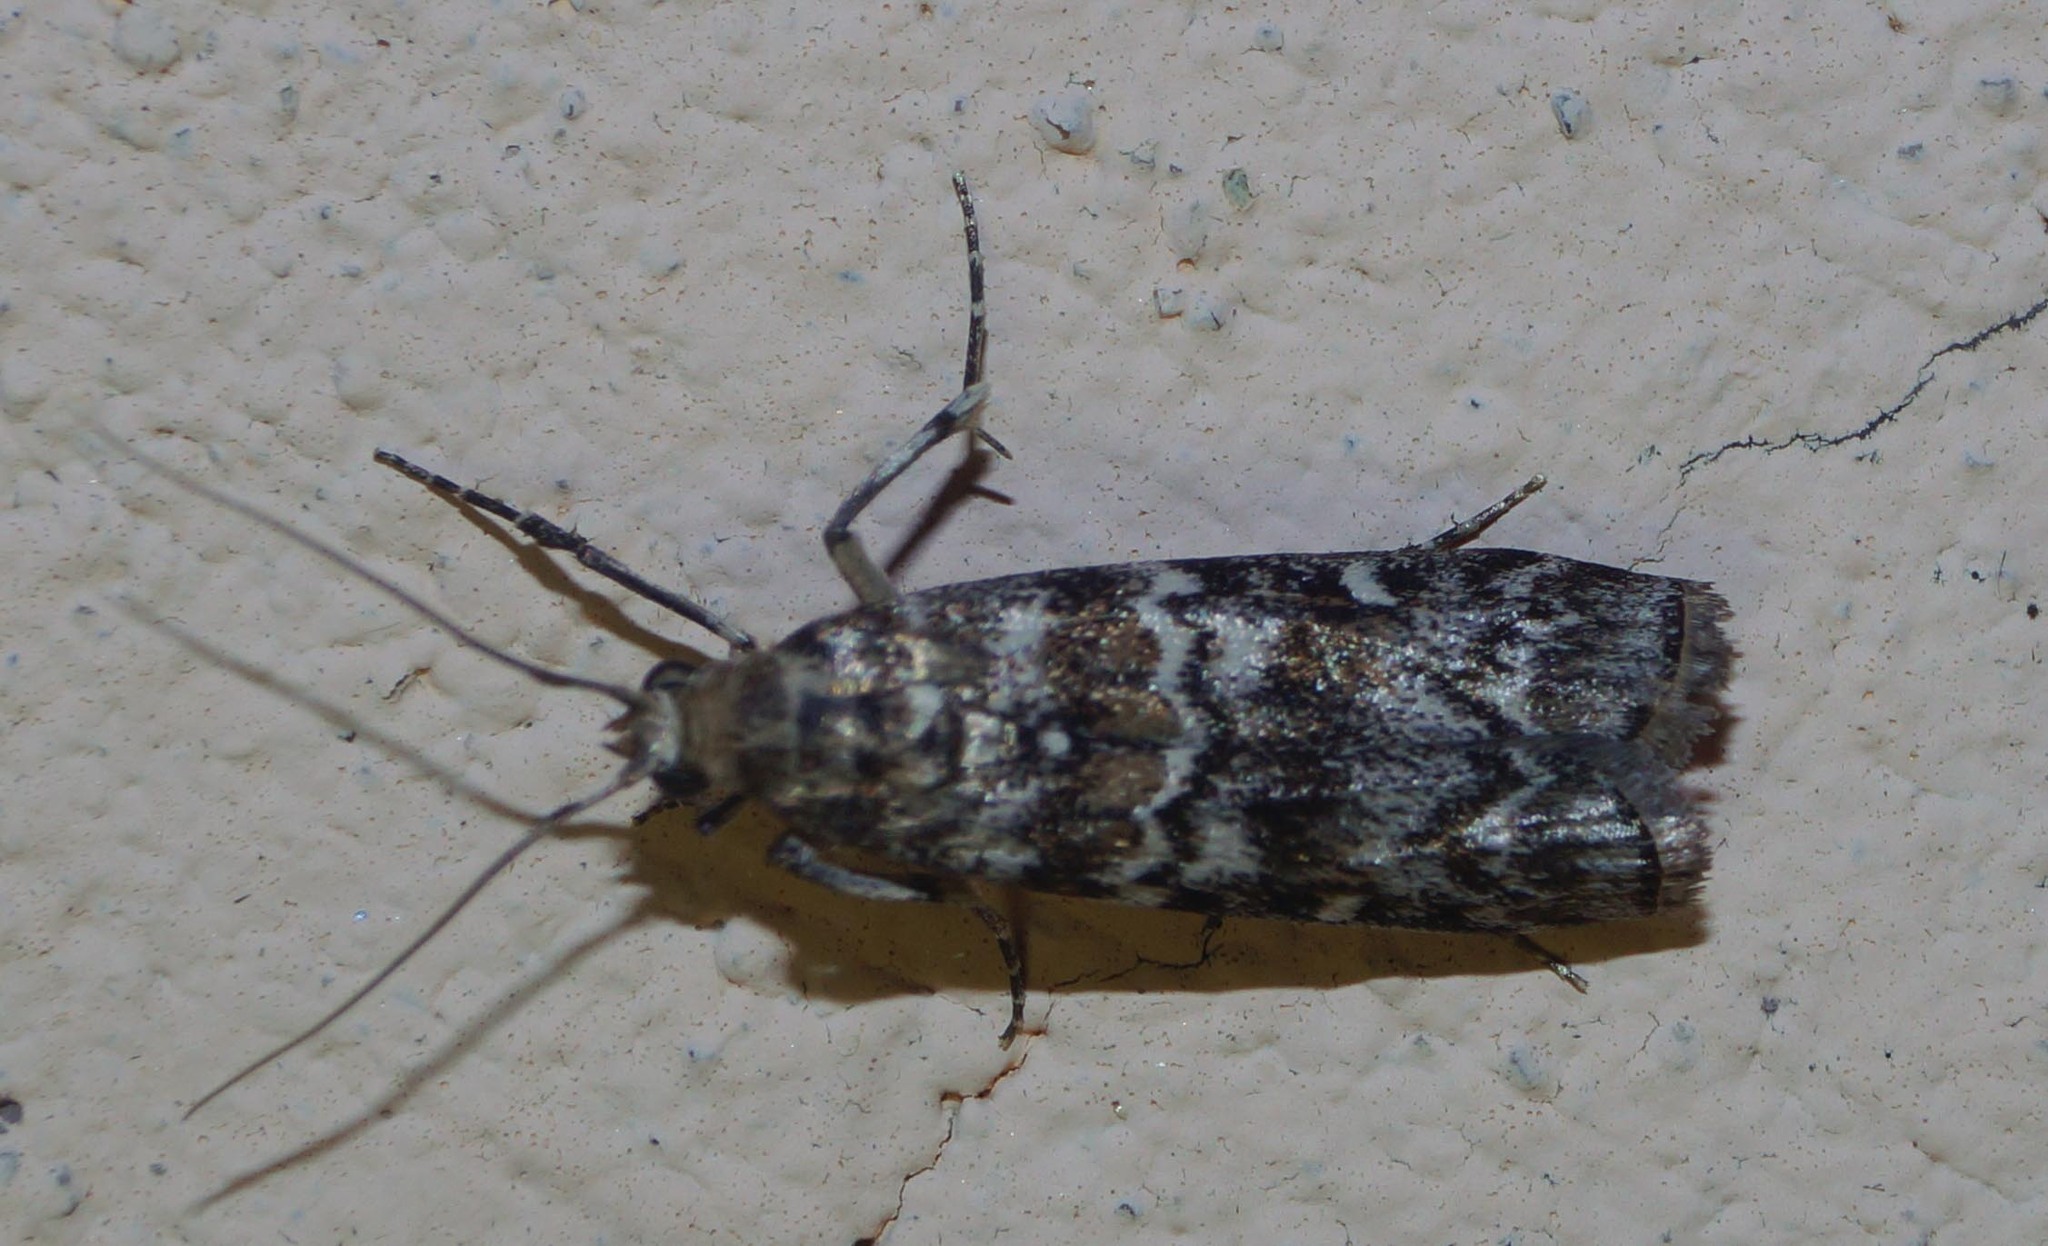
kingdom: Animalia
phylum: Arthropoda
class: Insecta
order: Lepidoptera
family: Pyralidae
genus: Dioryctria
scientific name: Dioryctria abietella
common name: Dark pine knot-horn
